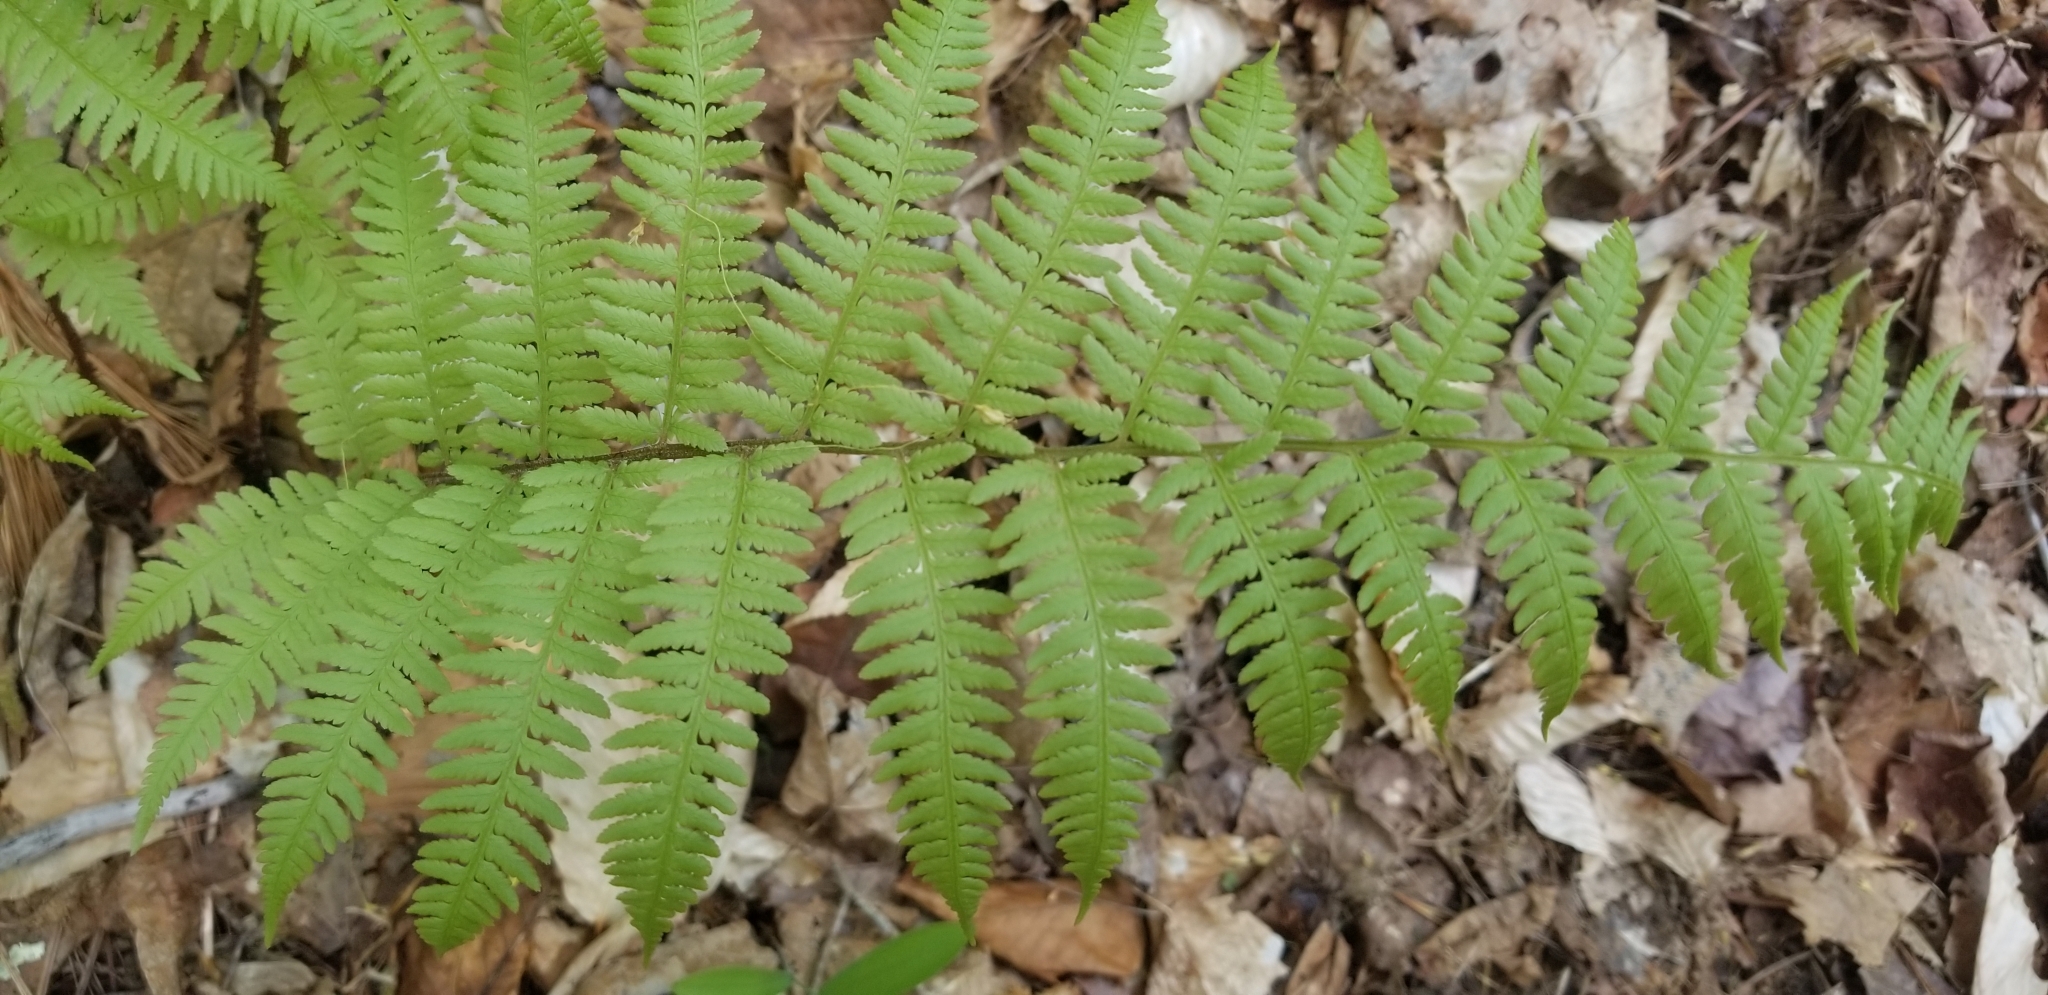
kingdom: Plantae
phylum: Tracheophyta
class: Polypodiopsida
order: Polypodiales
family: Athyriaceae
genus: Athyrium
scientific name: Athyrium angustum
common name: Northern lady fern
